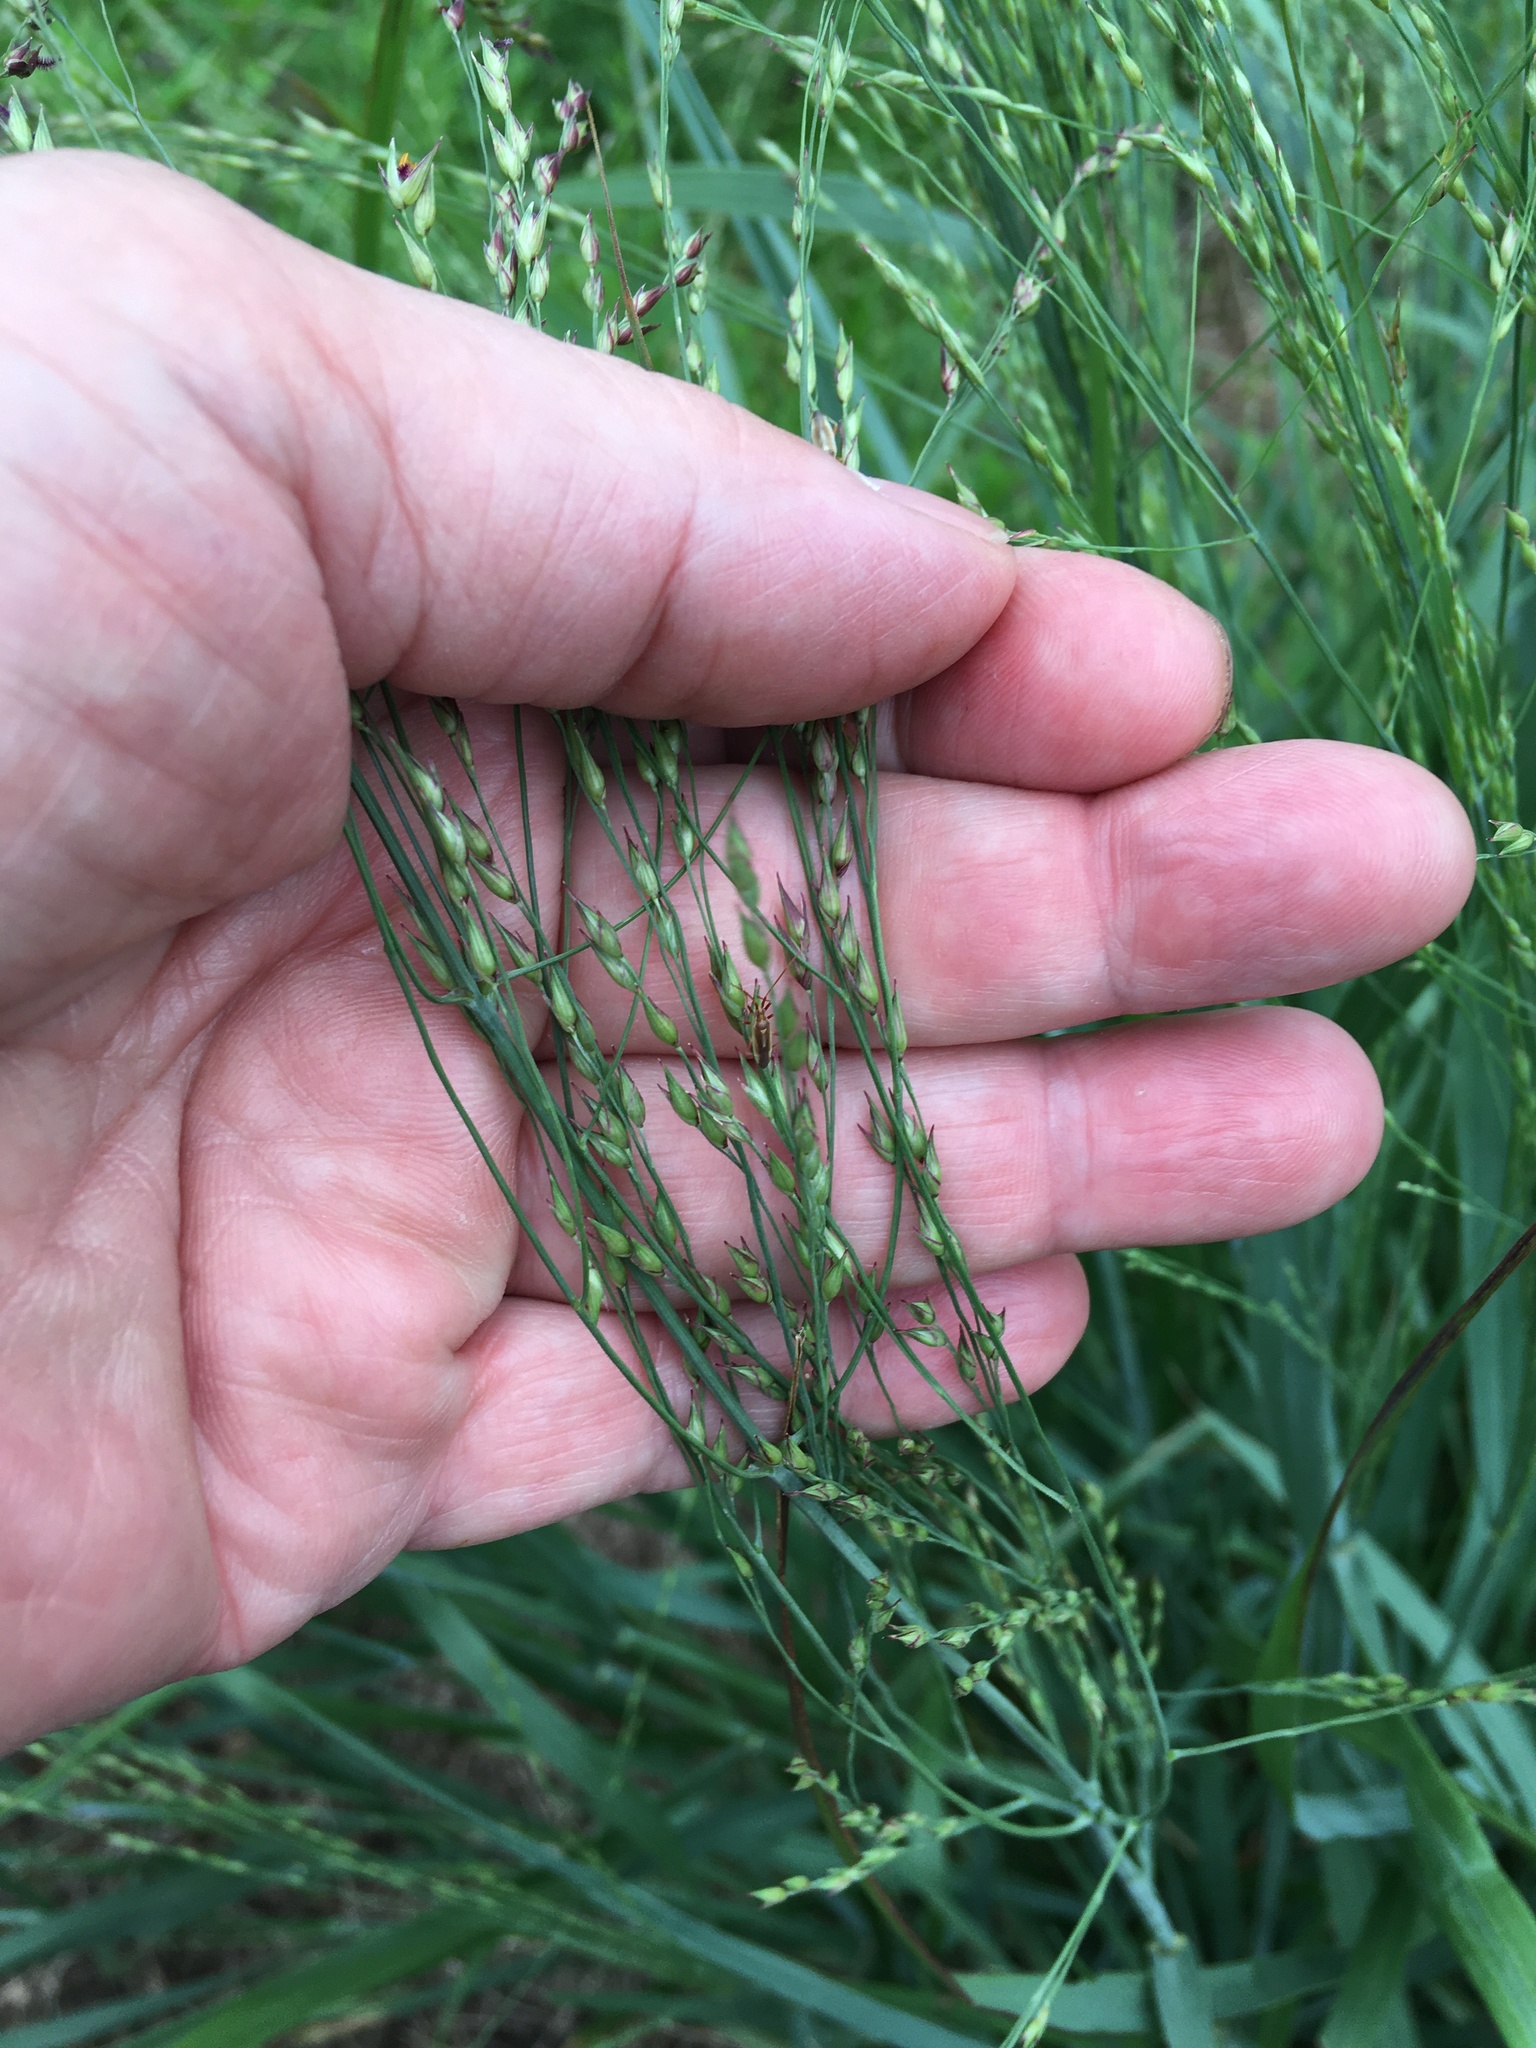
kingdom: Plantae
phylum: Tracheophyta
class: Liliopsida
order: Poales
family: Poaceae
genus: Panicum
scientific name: Panicum amarum
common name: Bitter panicum
